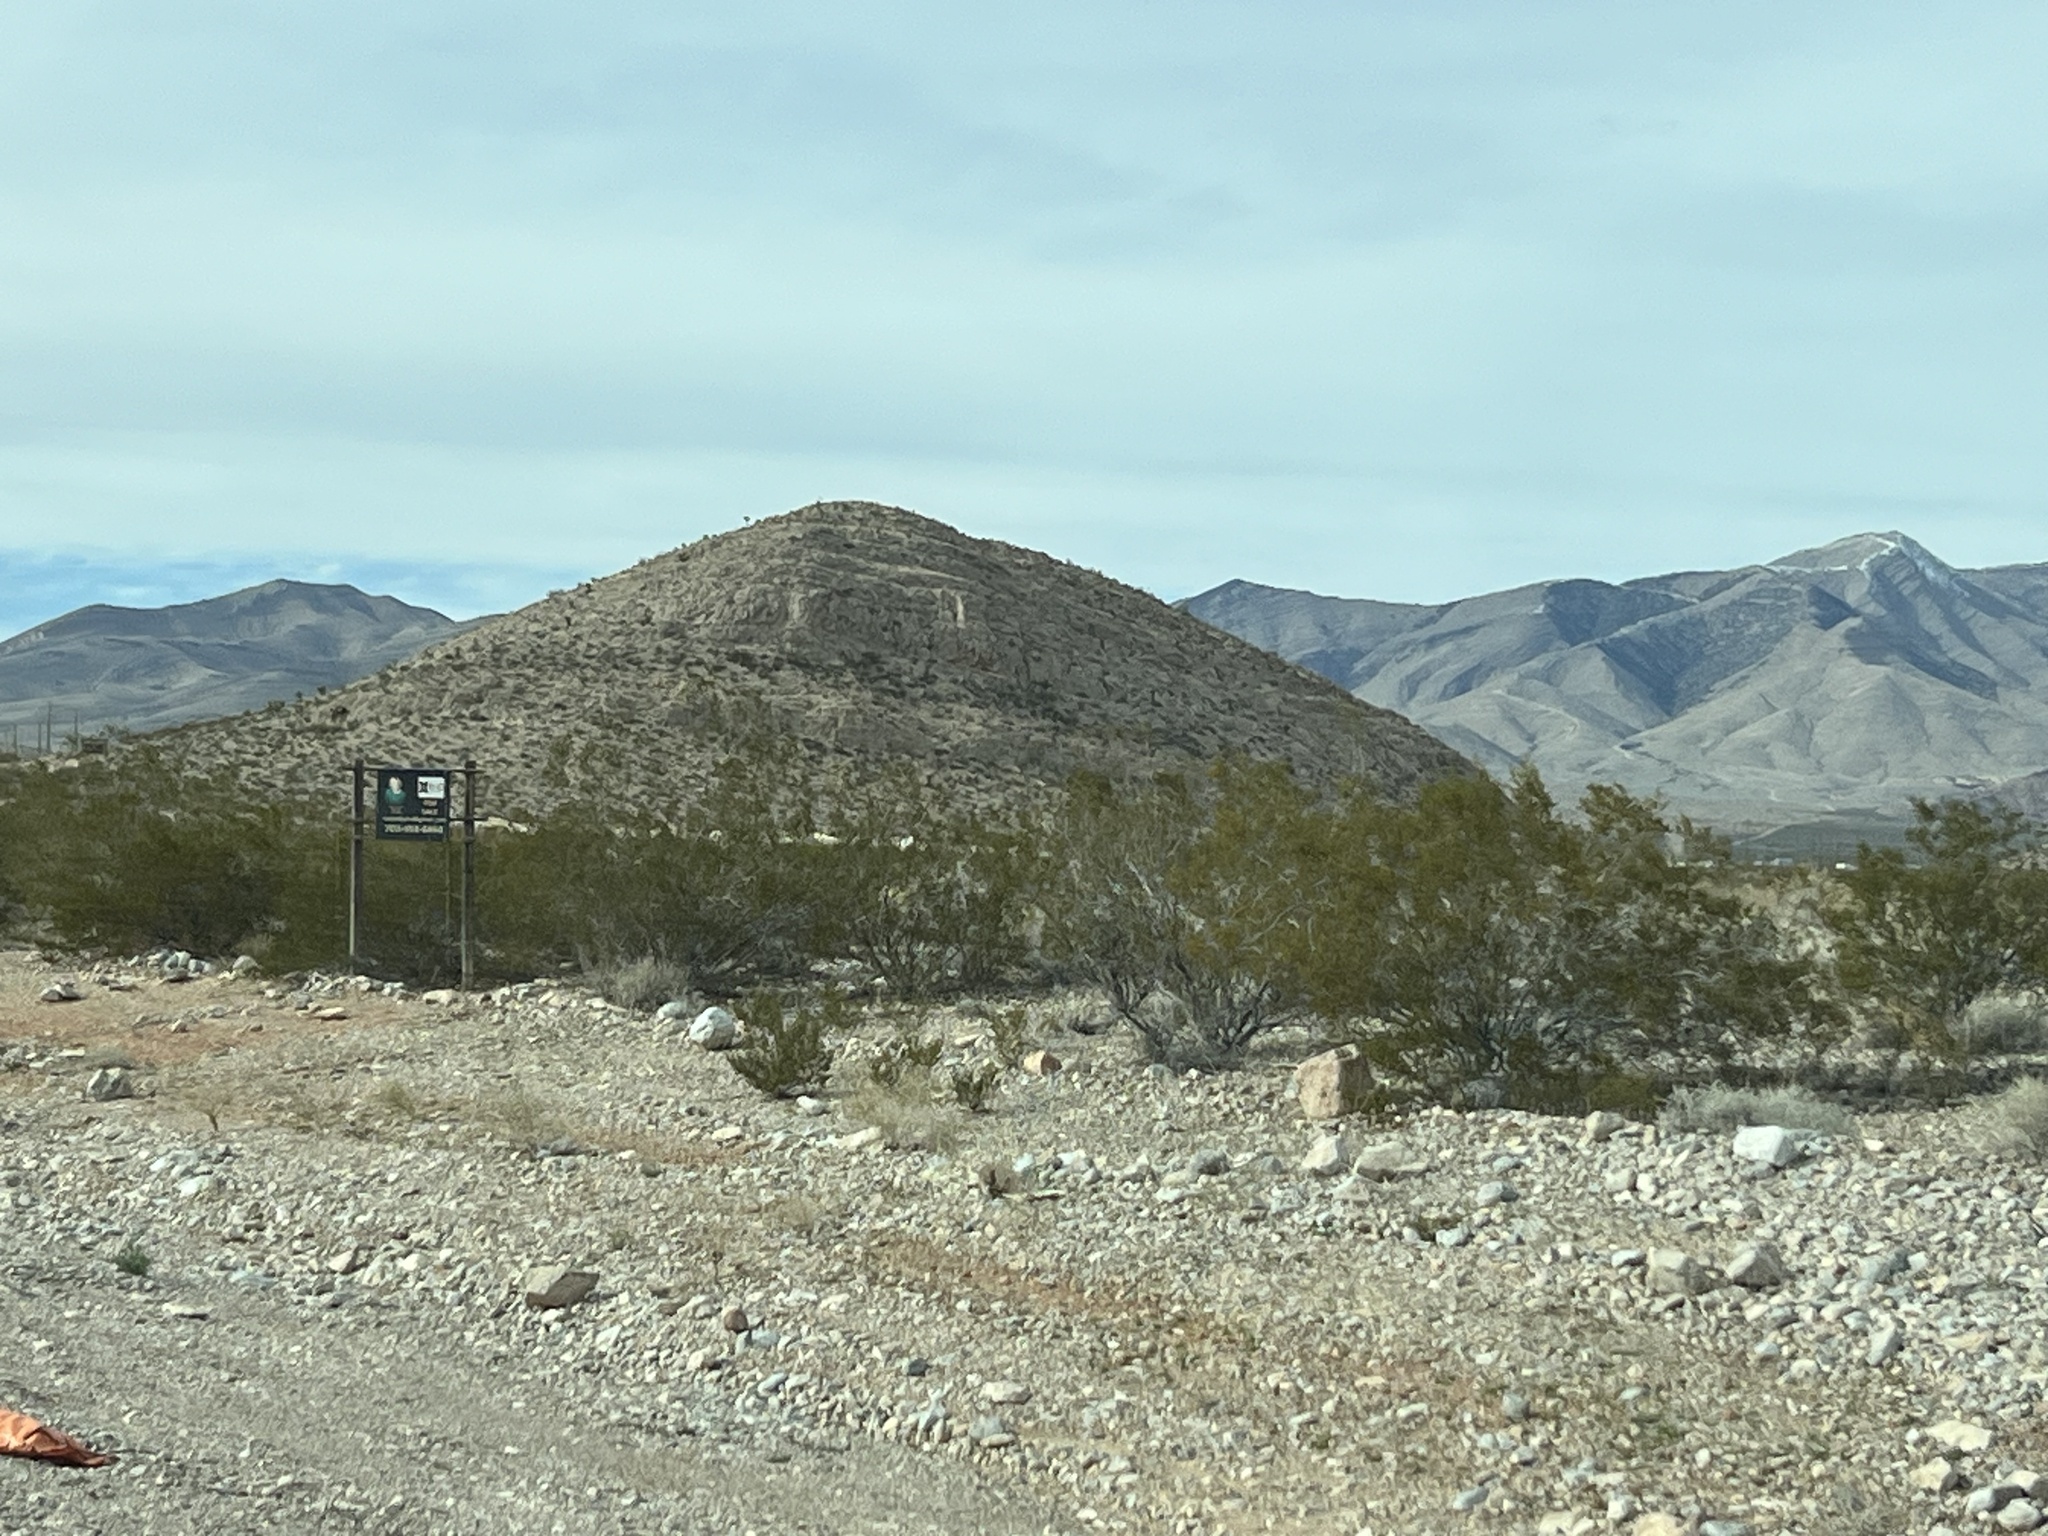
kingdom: Plantae
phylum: Tracheophyta
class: Magnoliopsida
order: Zygophyllales
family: Zygophyllaceae
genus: Larrea
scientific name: Larrea tridentata
